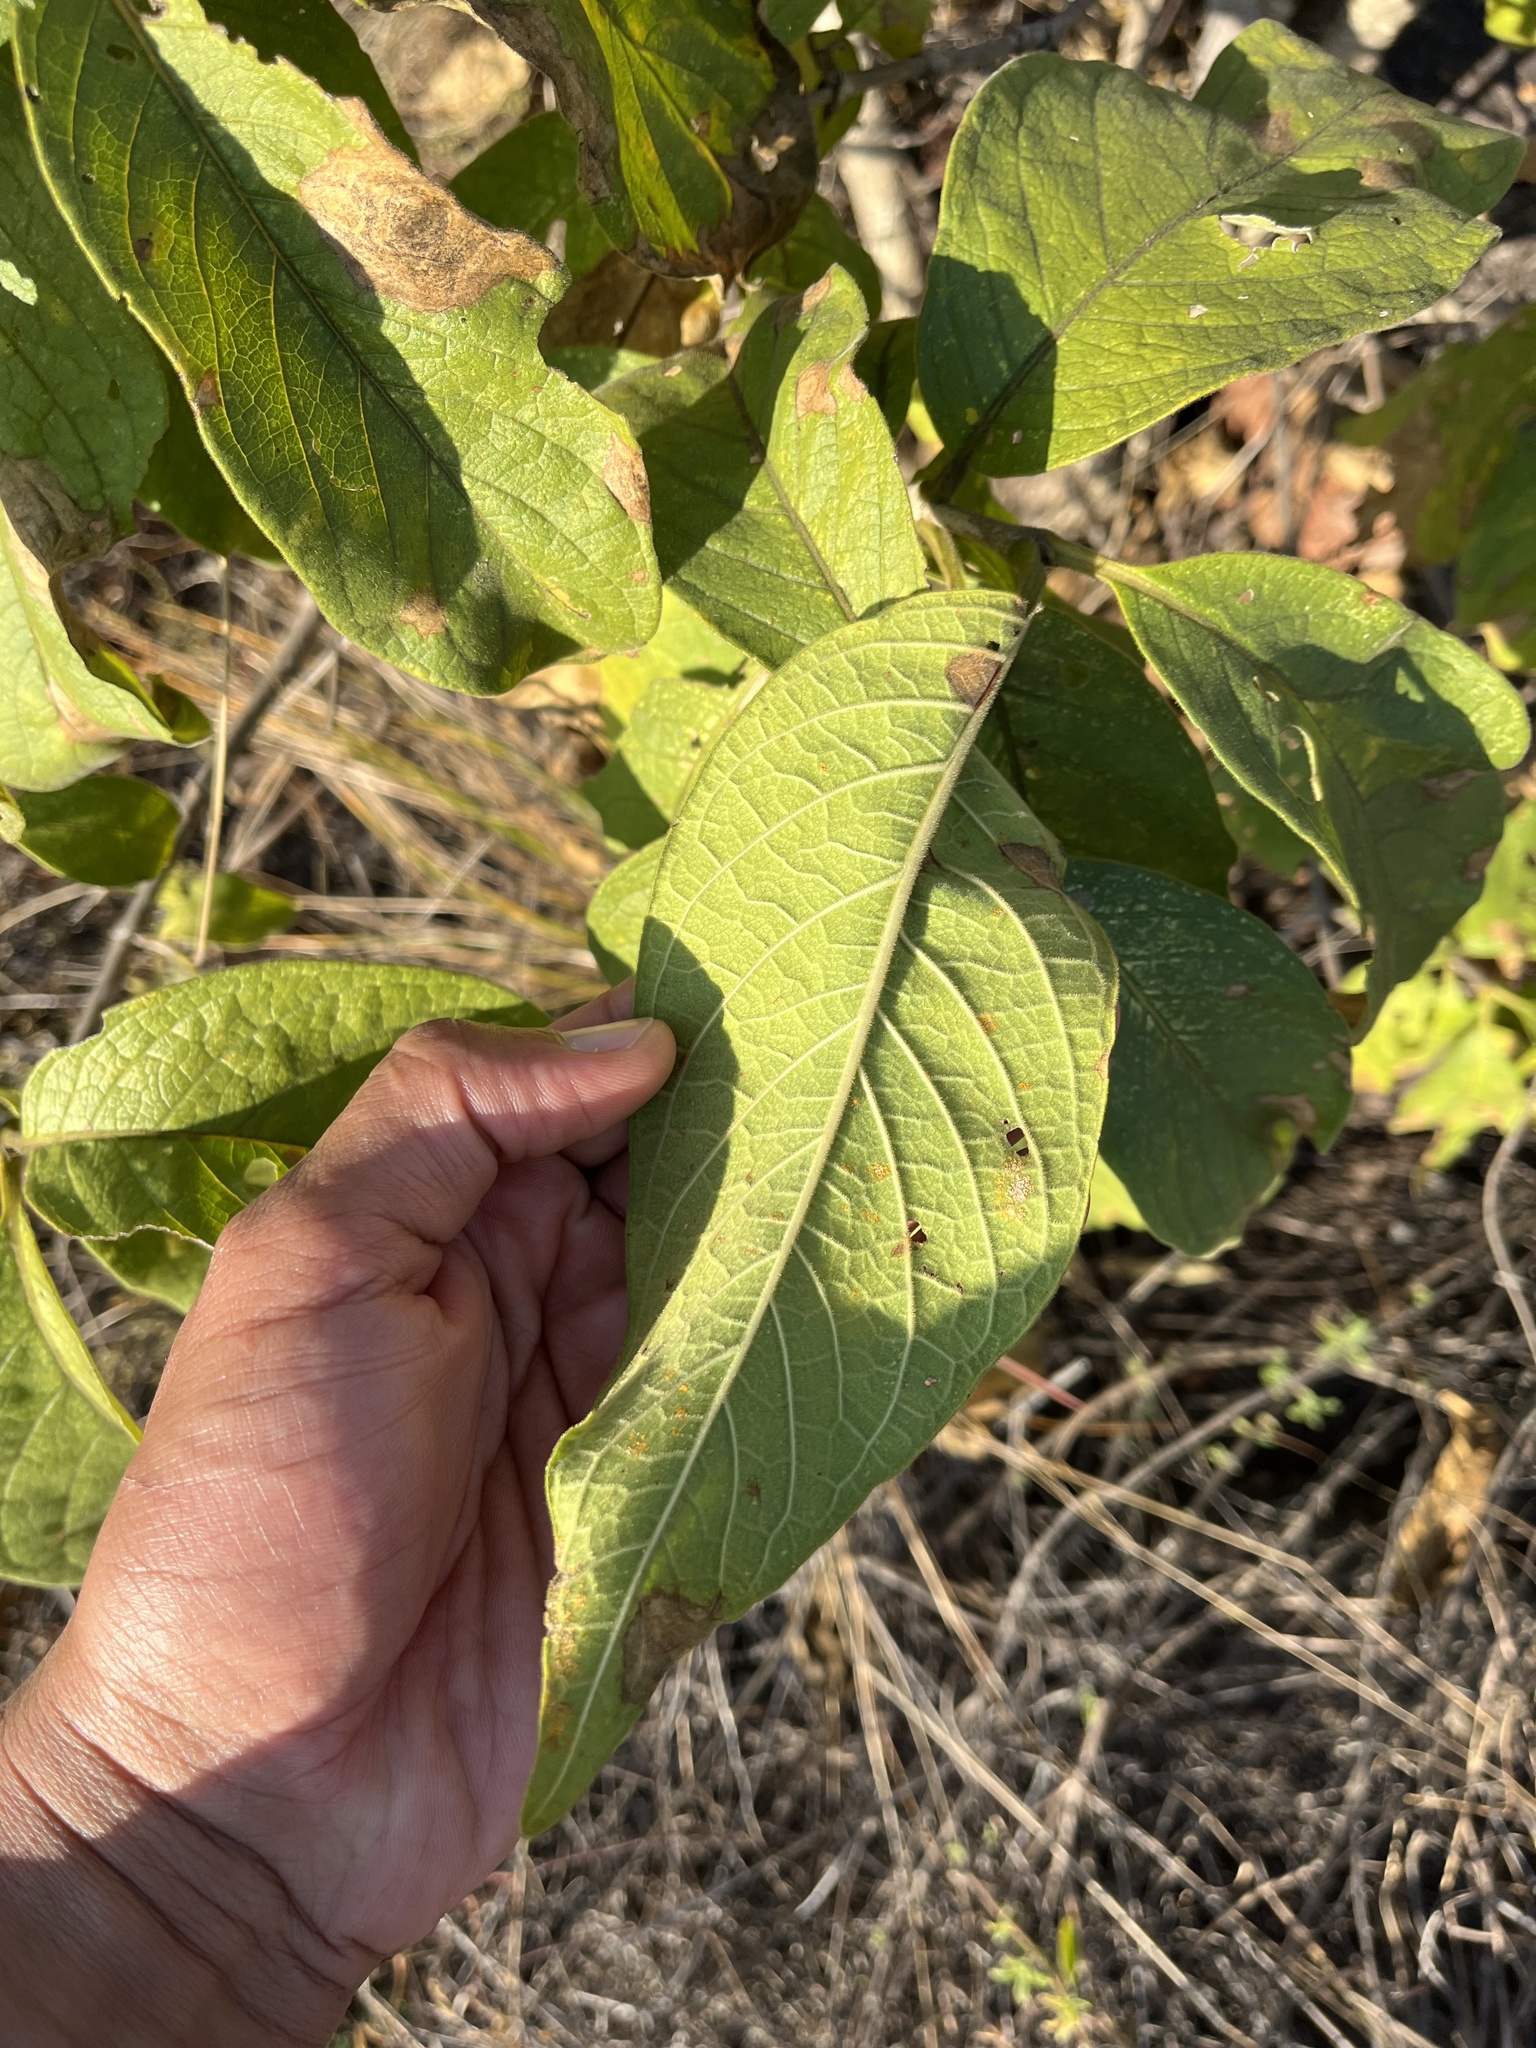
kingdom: Plantae
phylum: Tracheophyta
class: Magnoliopsida
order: Gentianales
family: Rubiaceae
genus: Vangueria
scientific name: Vangueria infausta
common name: Medlar
